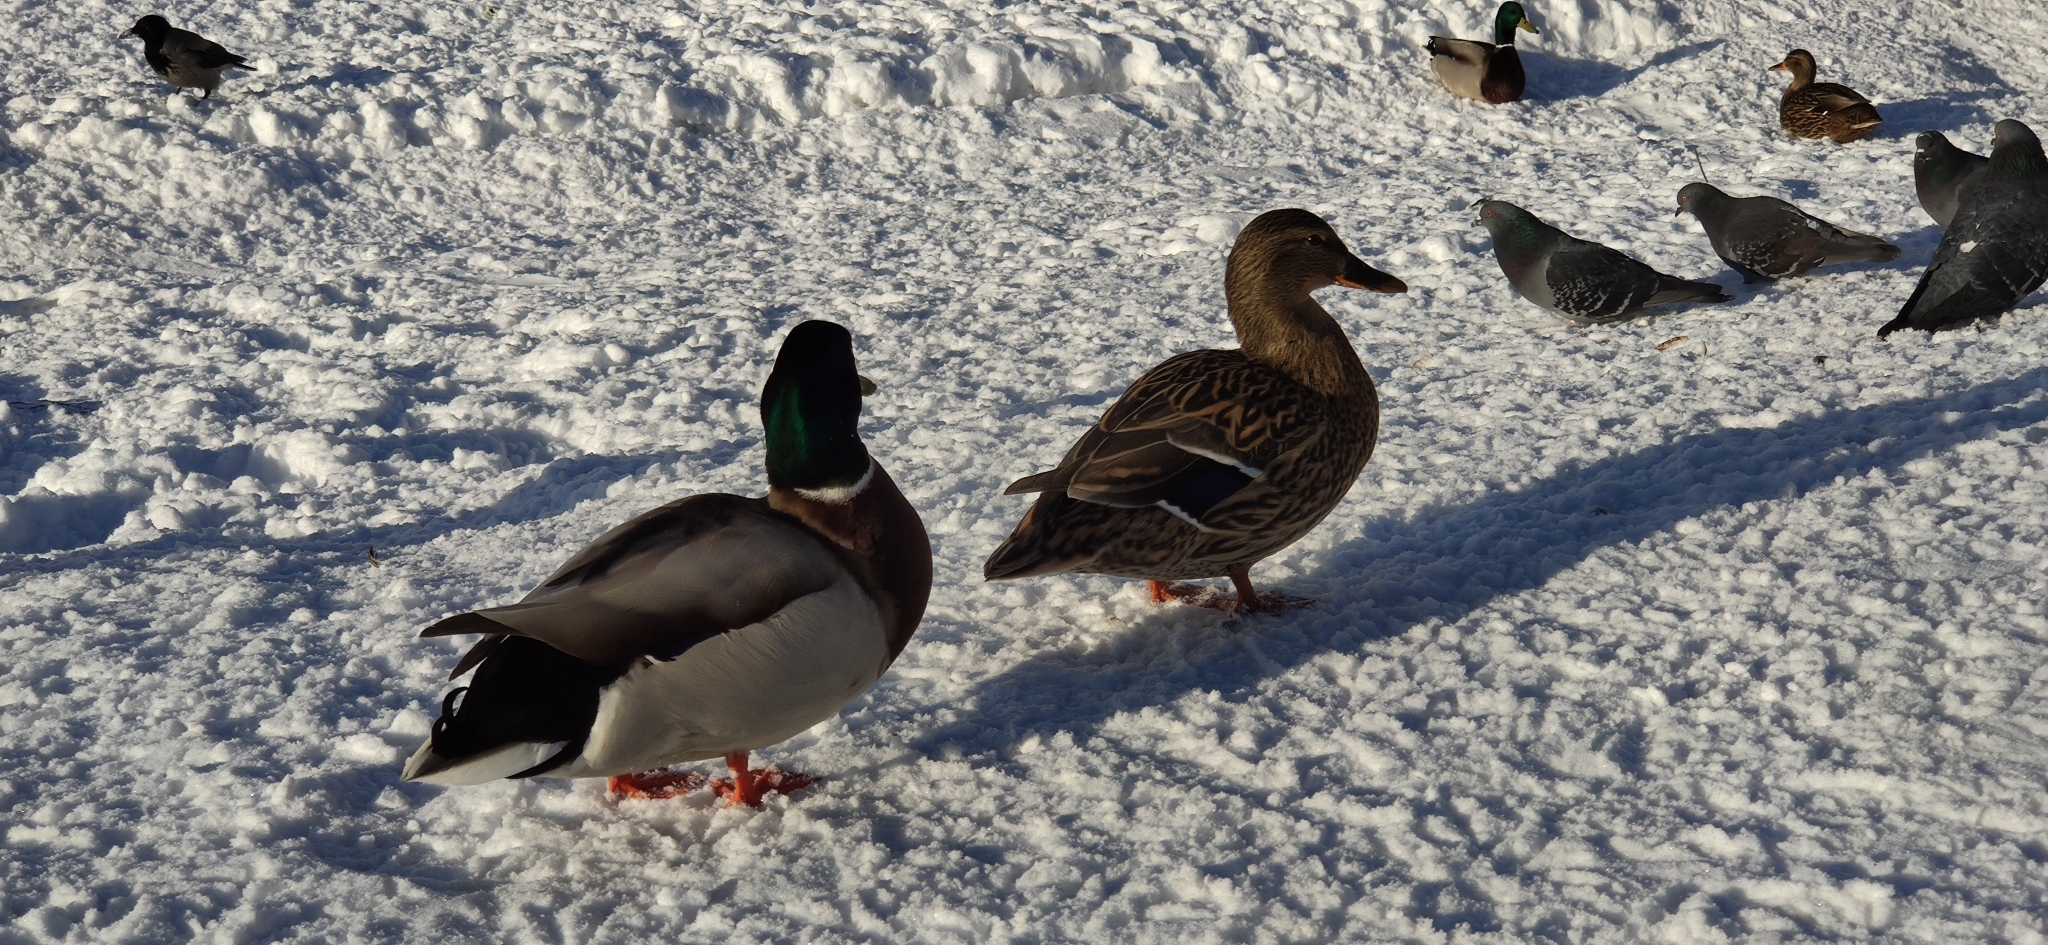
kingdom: Animalia
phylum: Chordata
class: Aves
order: Anseriformes
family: Anatidae
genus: Anas
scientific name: Anas platyrhynchos
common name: Mallard
